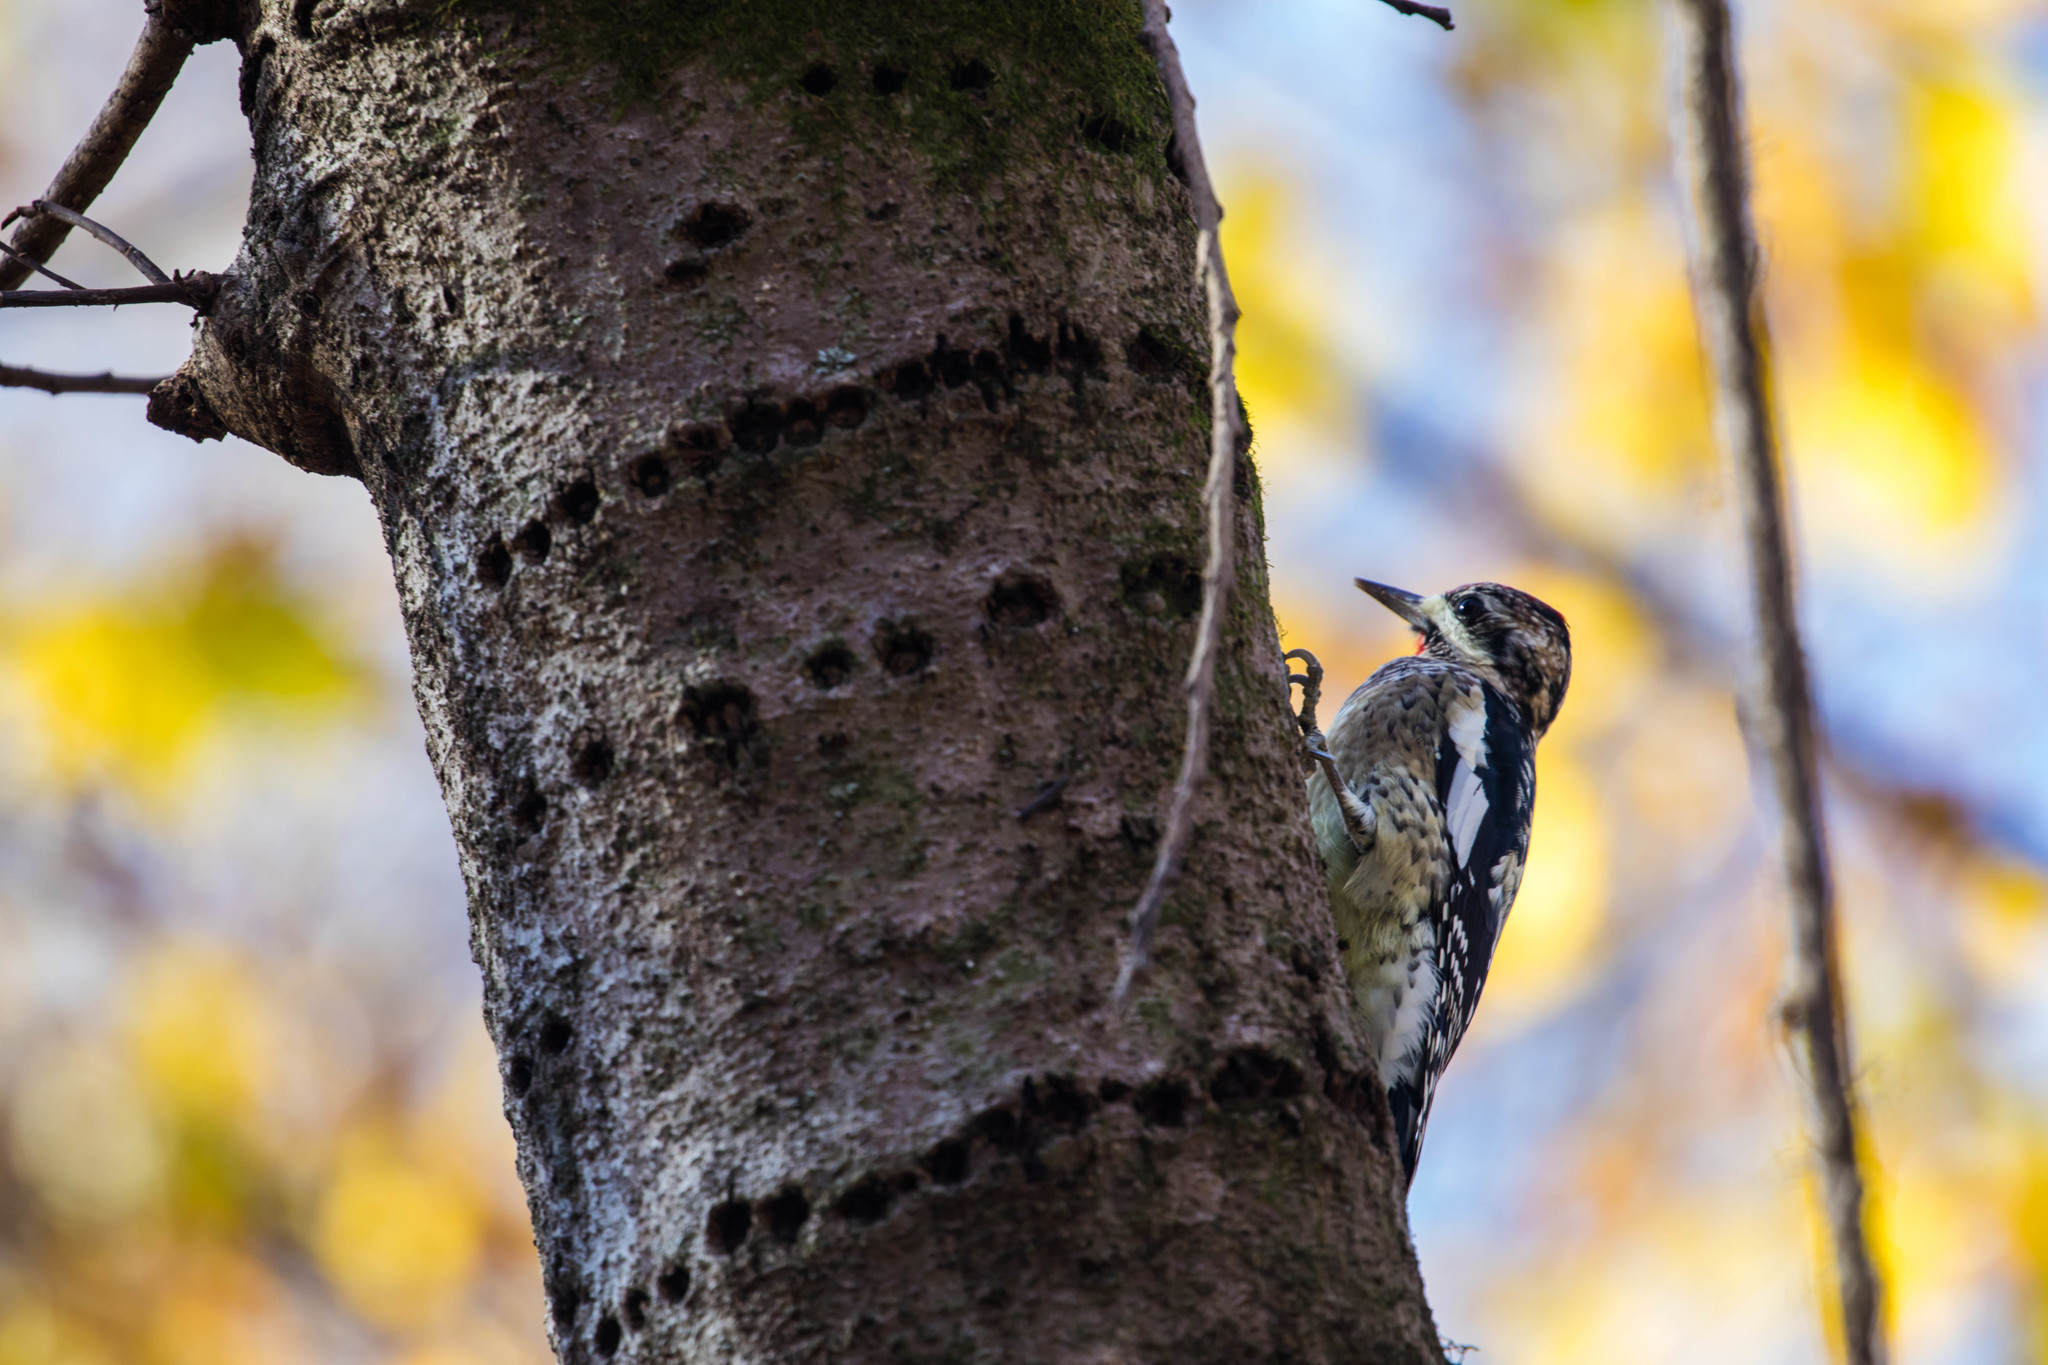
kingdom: Animalia
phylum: Chordata
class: Aves
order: Piciformes
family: Picidae
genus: Sphyrapicus
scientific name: Sphyrapicus varius
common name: Yellow-bellied sapsucker
